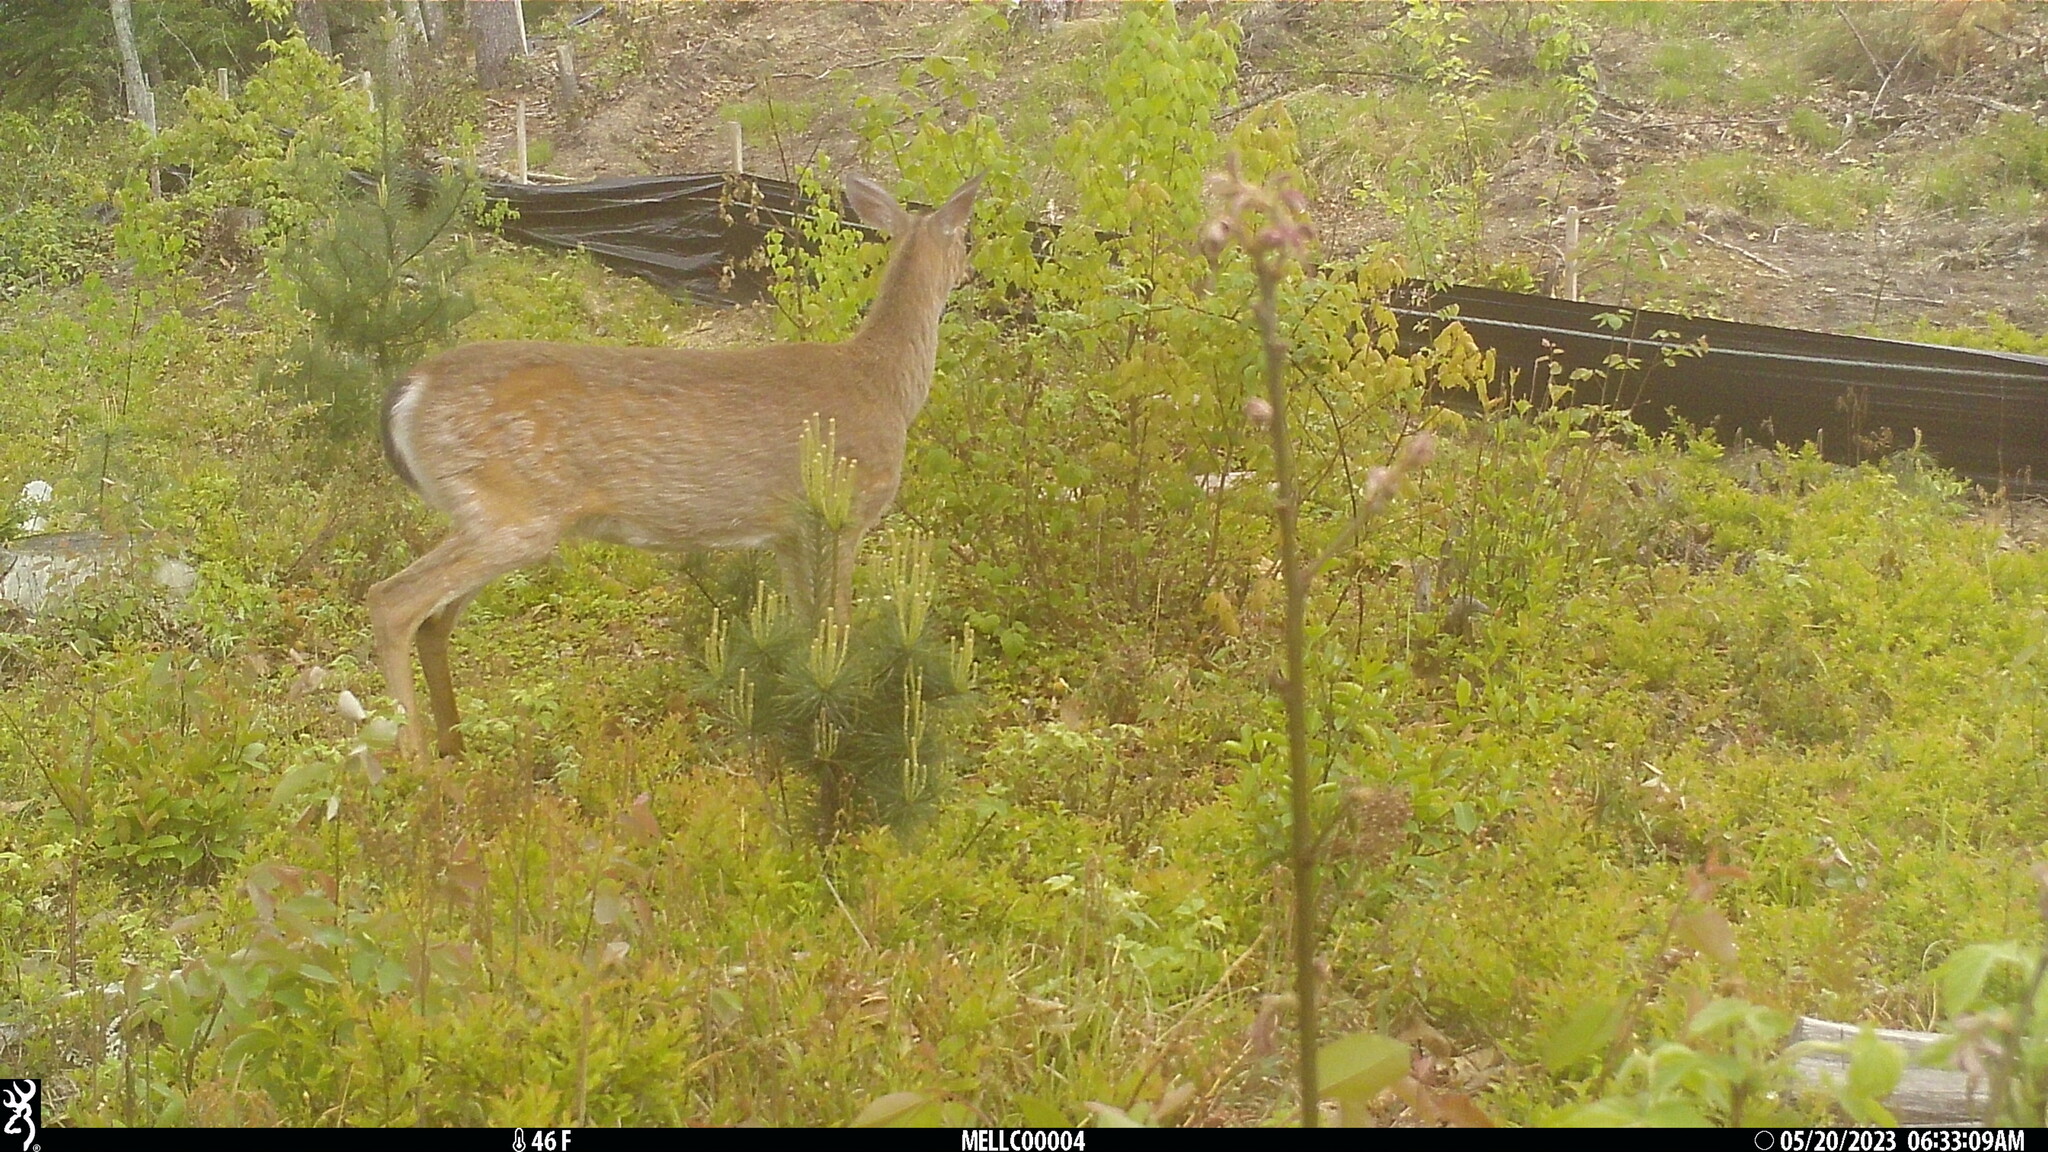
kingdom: Animalia
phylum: Chordata
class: Mammalia
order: Artiodactyla
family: Cervidae
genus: Odocoileus
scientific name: Odocoileus virginianus
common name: White-tailed deer
